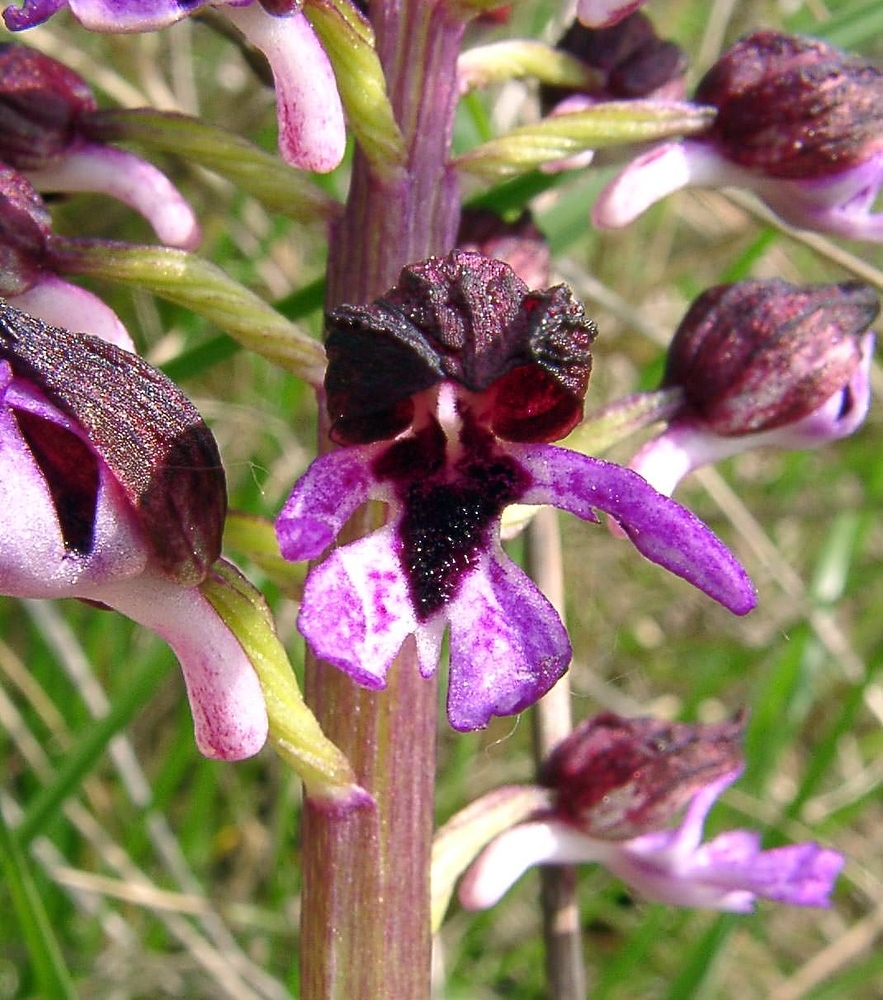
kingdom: Plantae
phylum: Tracheophyta
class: Liliopsida
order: Asparagales
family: Orchidaceae
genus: Orchis
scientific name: Orchis purpurea
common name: Lady orchid
